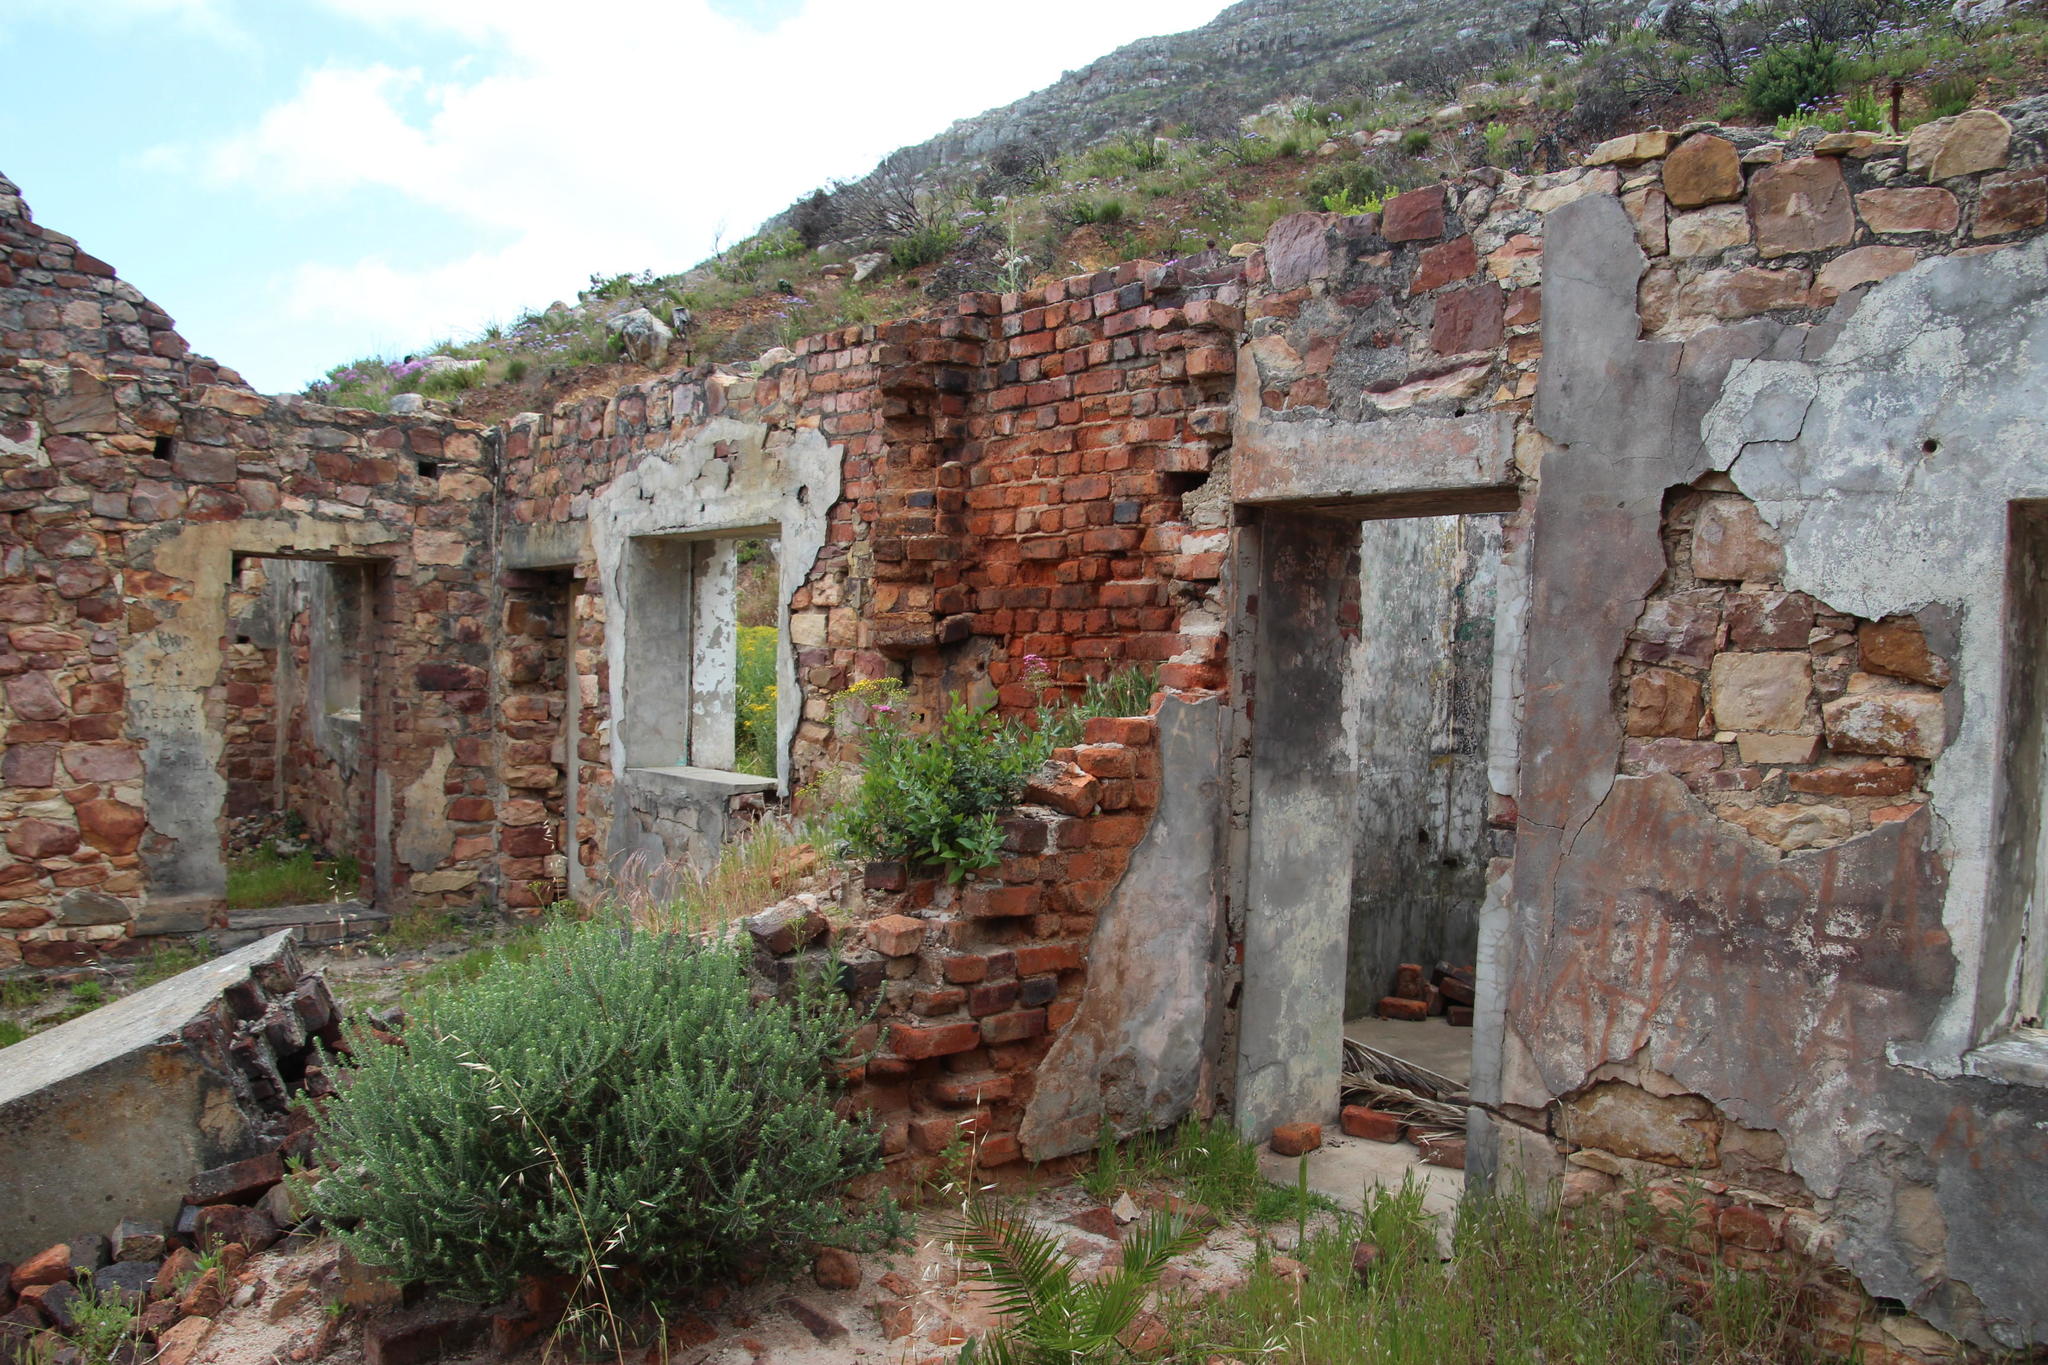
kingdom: Plantae
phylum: Tracheophyta
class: Magnoliopsida
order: Dipsacales
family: Caprifoliaceae
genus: Centranthus
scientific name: Centranthus ruber
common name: Red valerian
